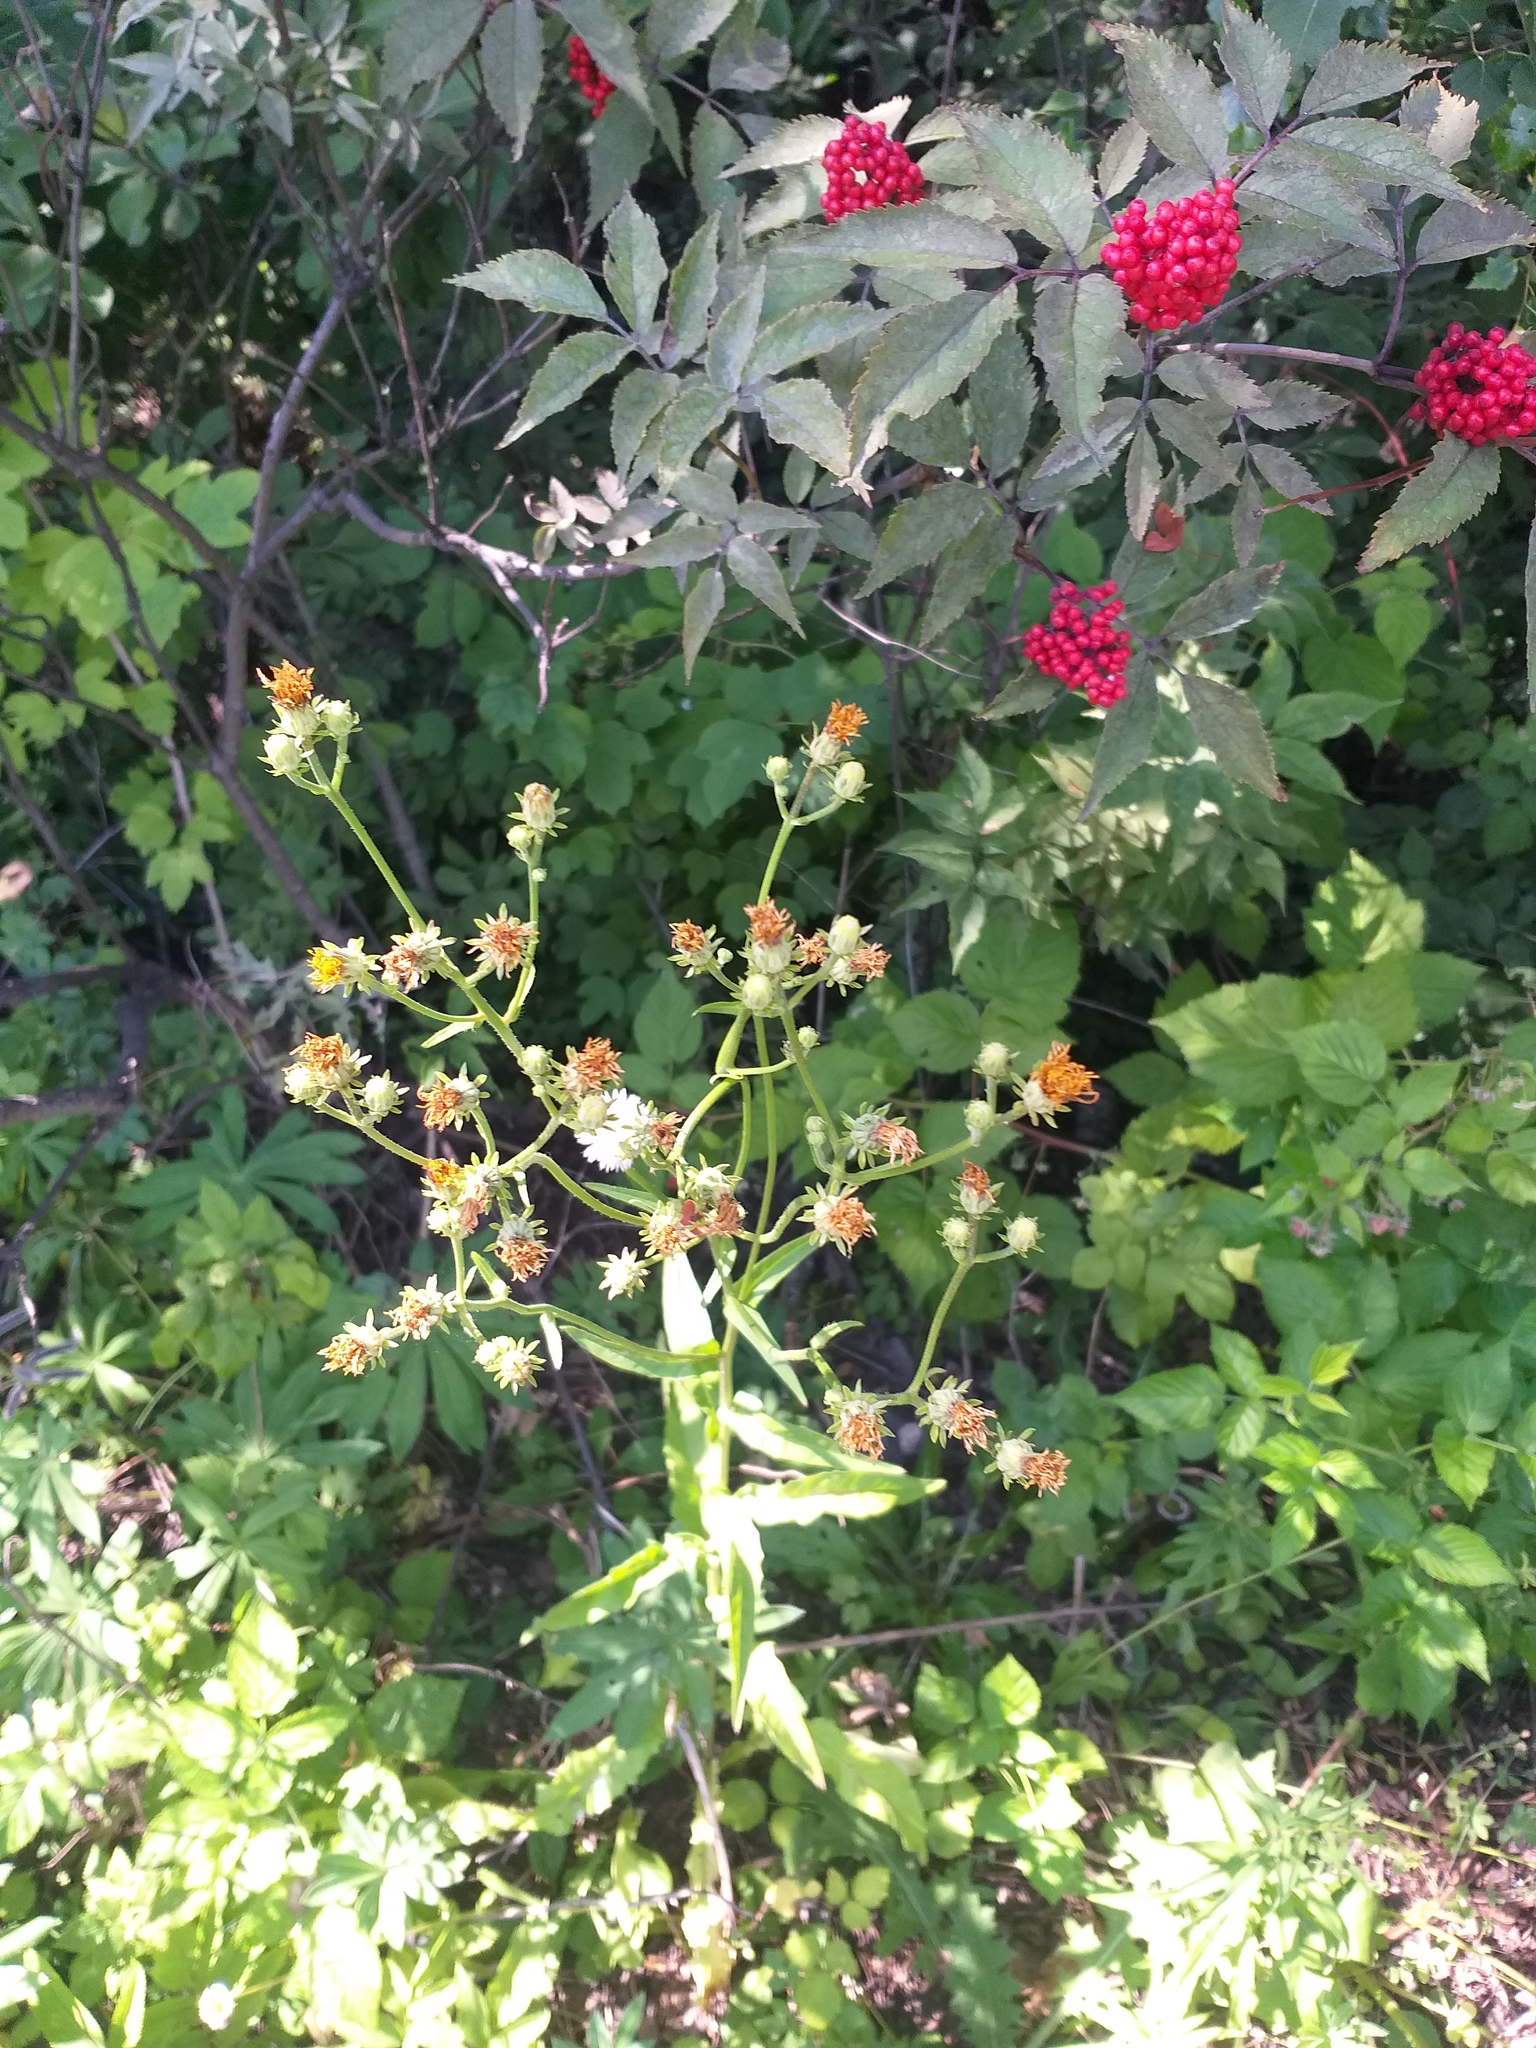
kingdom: Plantae
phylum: Tracheophyta
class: Magnoliopsida
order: Asterales
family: Asteraceae
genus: Picris
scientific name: Picris hieracioides
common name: Hawkweed oxtongue
